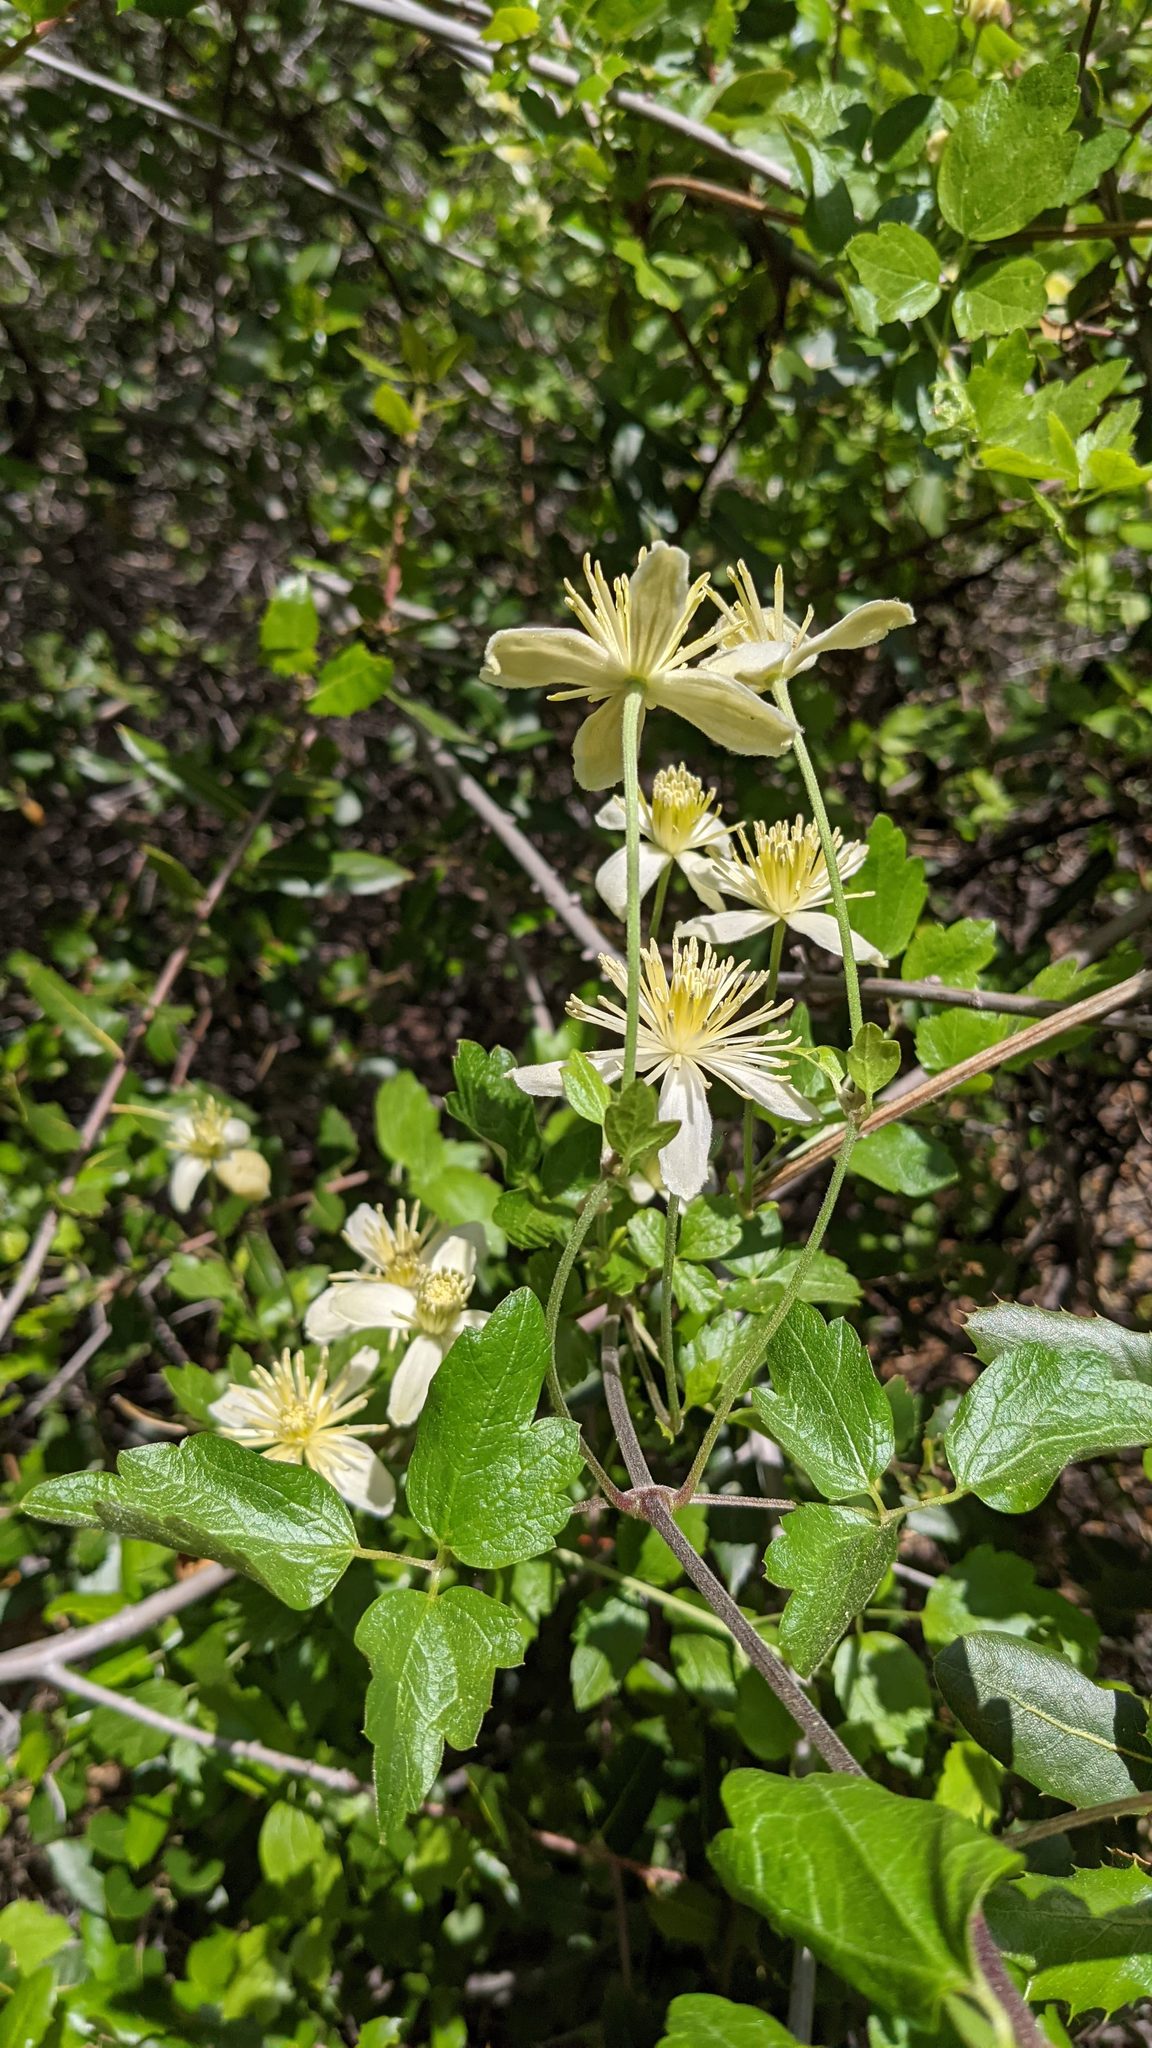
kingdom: Plantae
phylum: Tracheophyta
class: Magnoliopsida
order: Ranunculales
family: Ranunculaceae
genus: Clematis
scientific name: Clematis lasiantha
